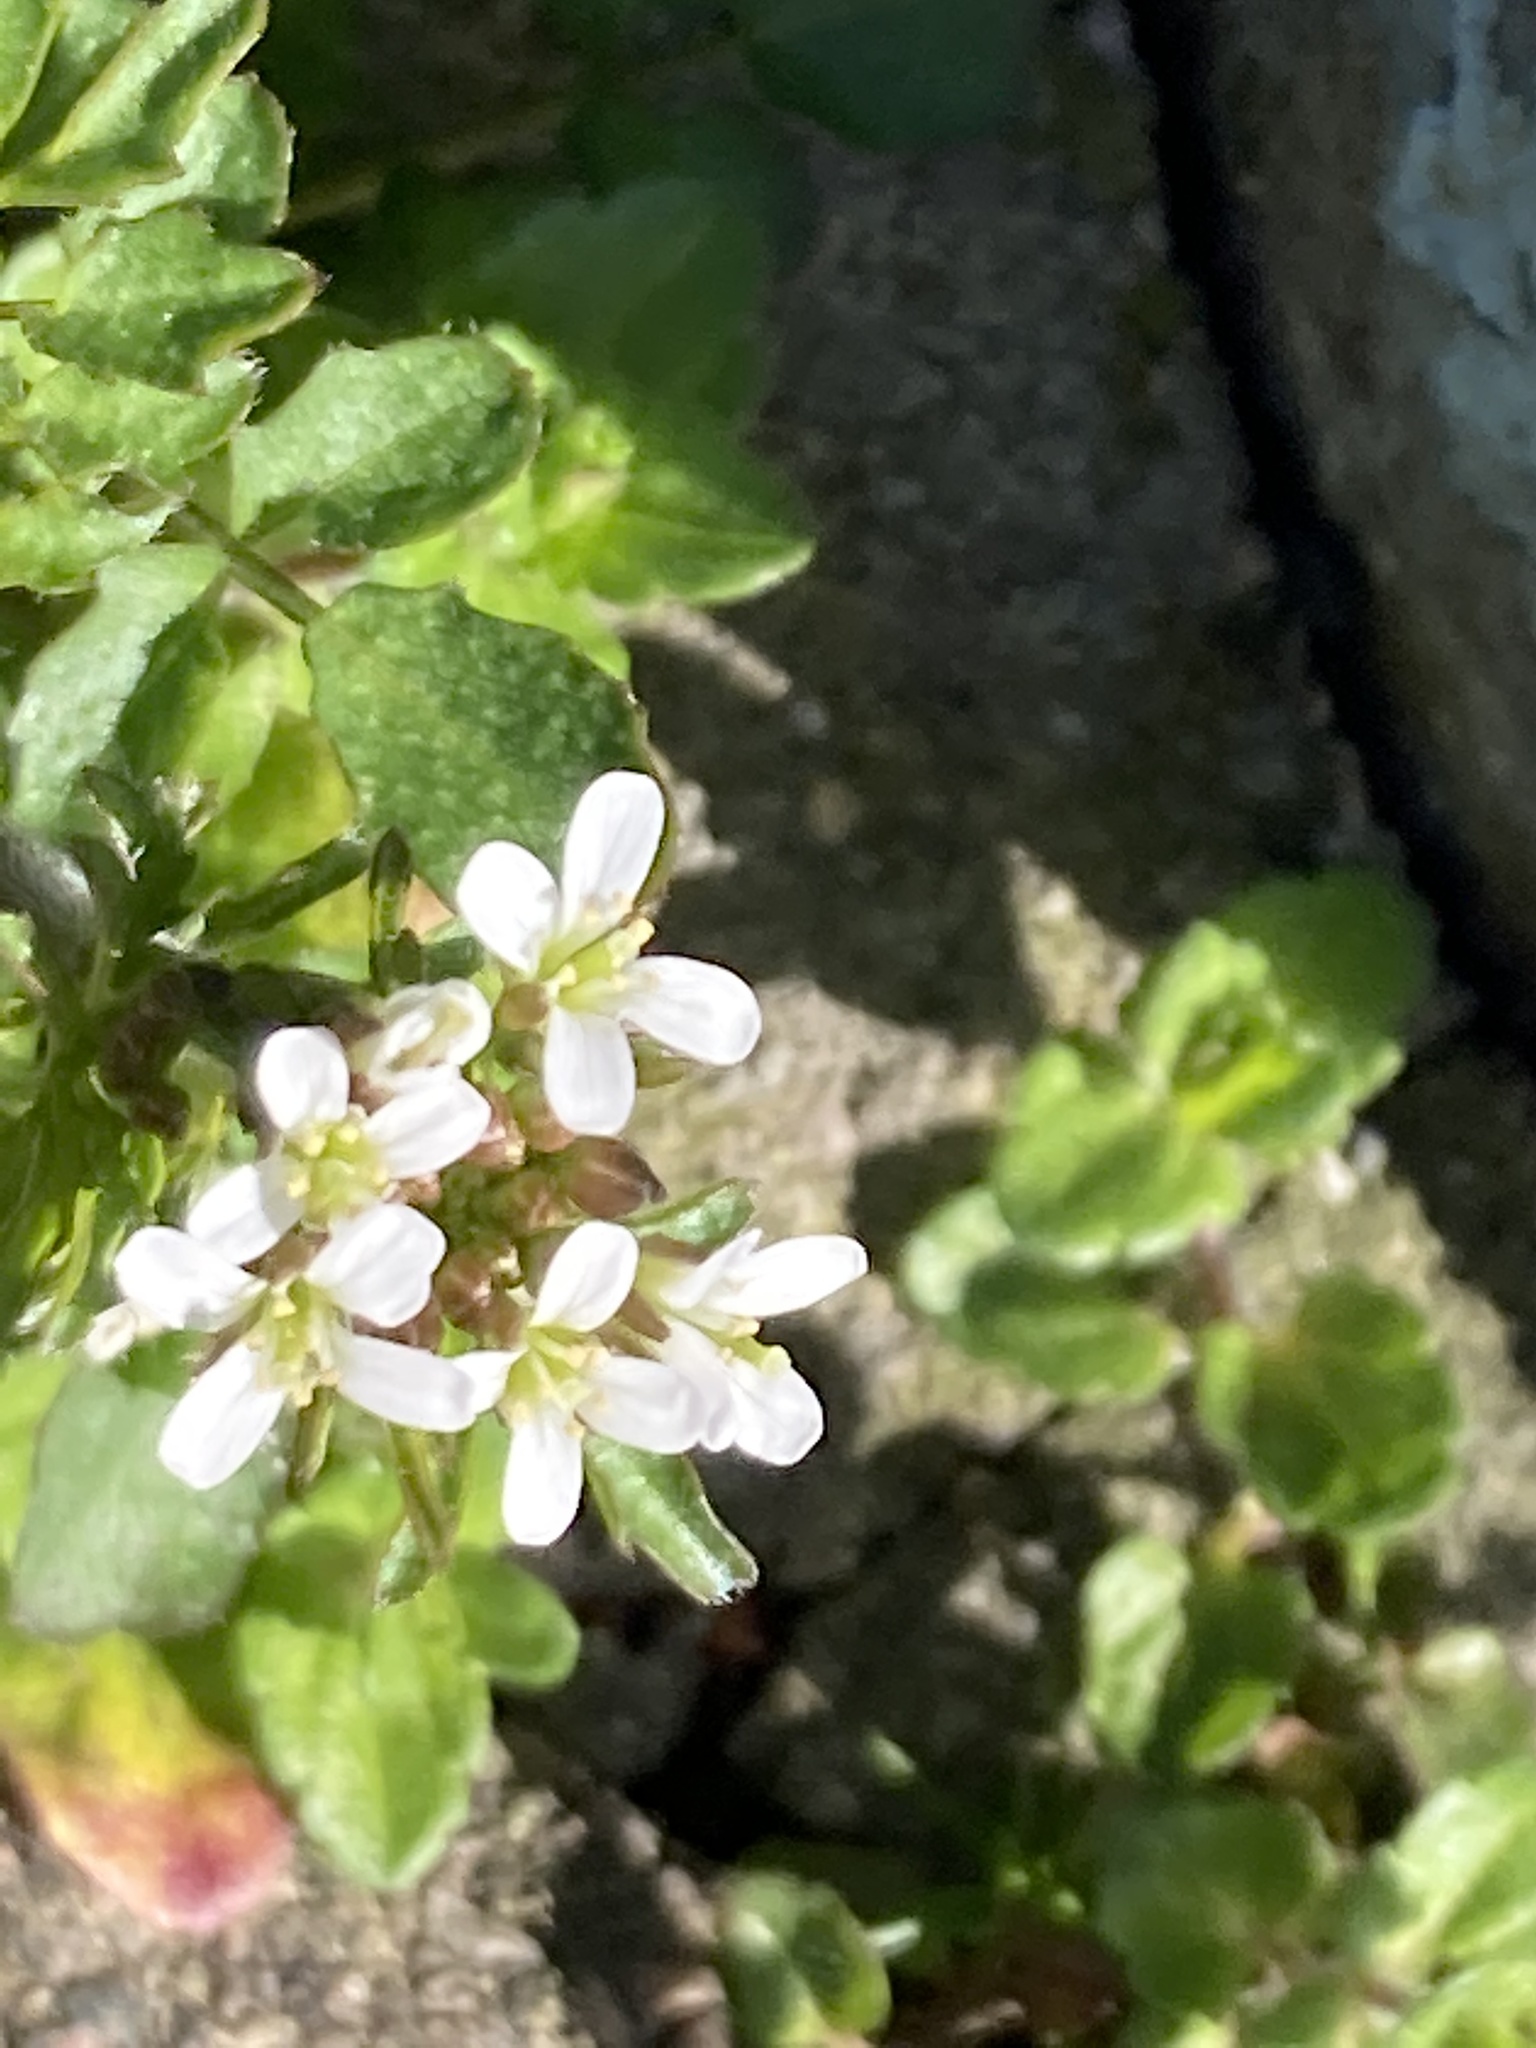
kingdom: Plantae
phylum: Tracheophyta
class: Magnoliopsida
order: Brassicales
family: Brassicaceae
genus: Cardamine
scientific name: Cardamine flexuosa
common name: Woodland bittercress
